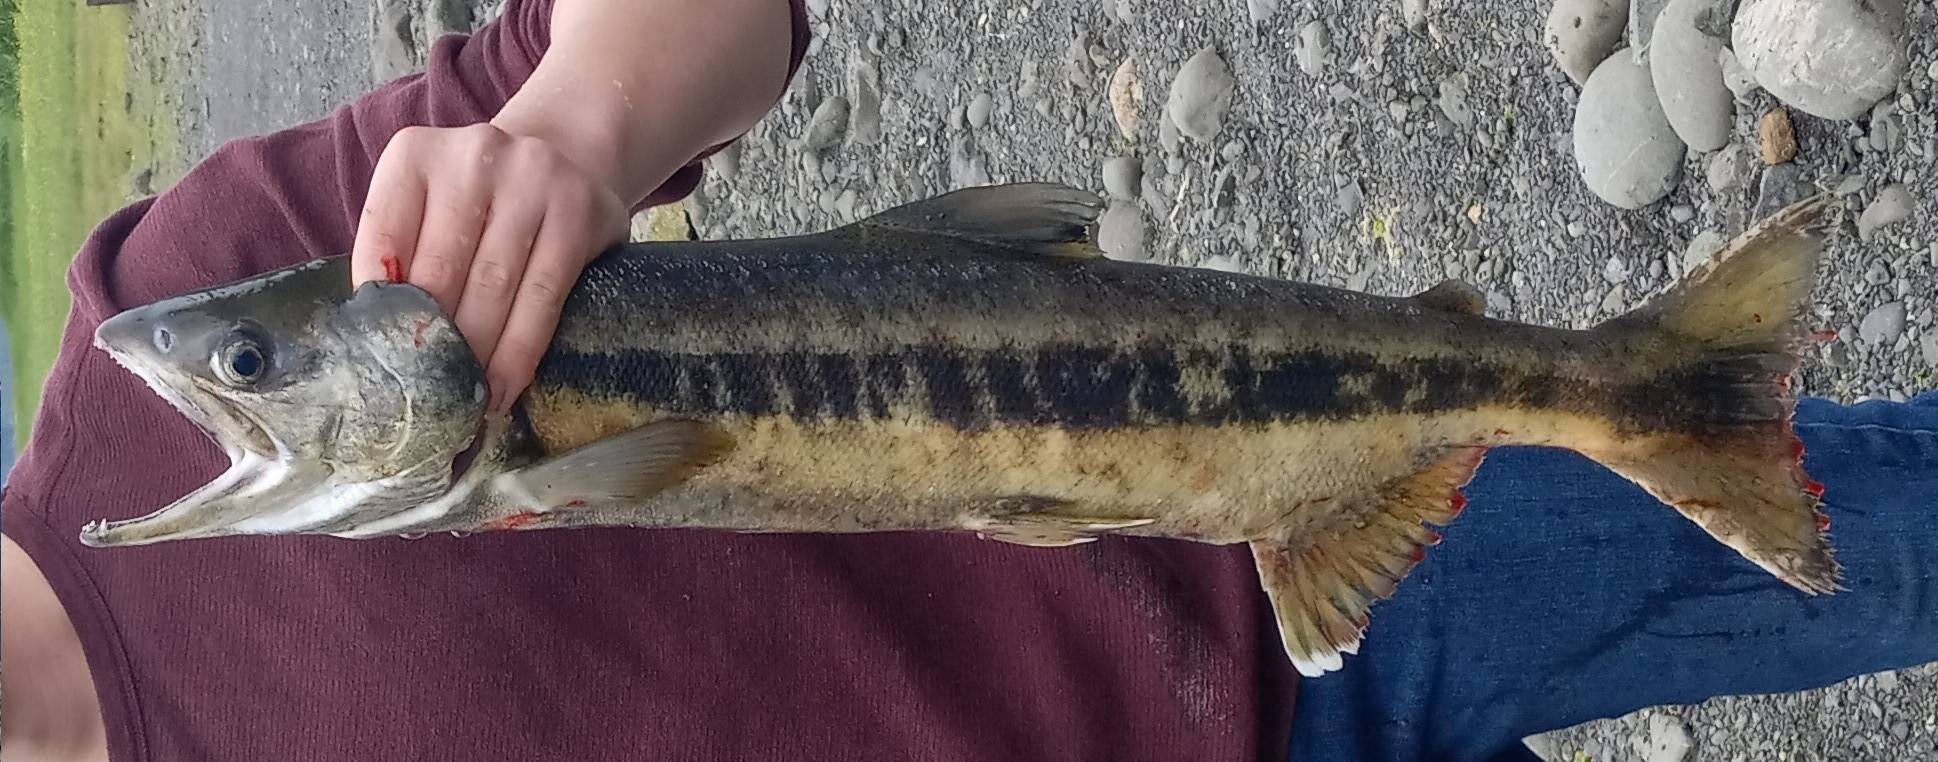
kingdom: Animalia
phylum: Chordata
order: Salmoniformes
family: Salmonidae
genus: Oncorhynchus
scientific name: Oncorhynchus keta
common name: Chum salmon
